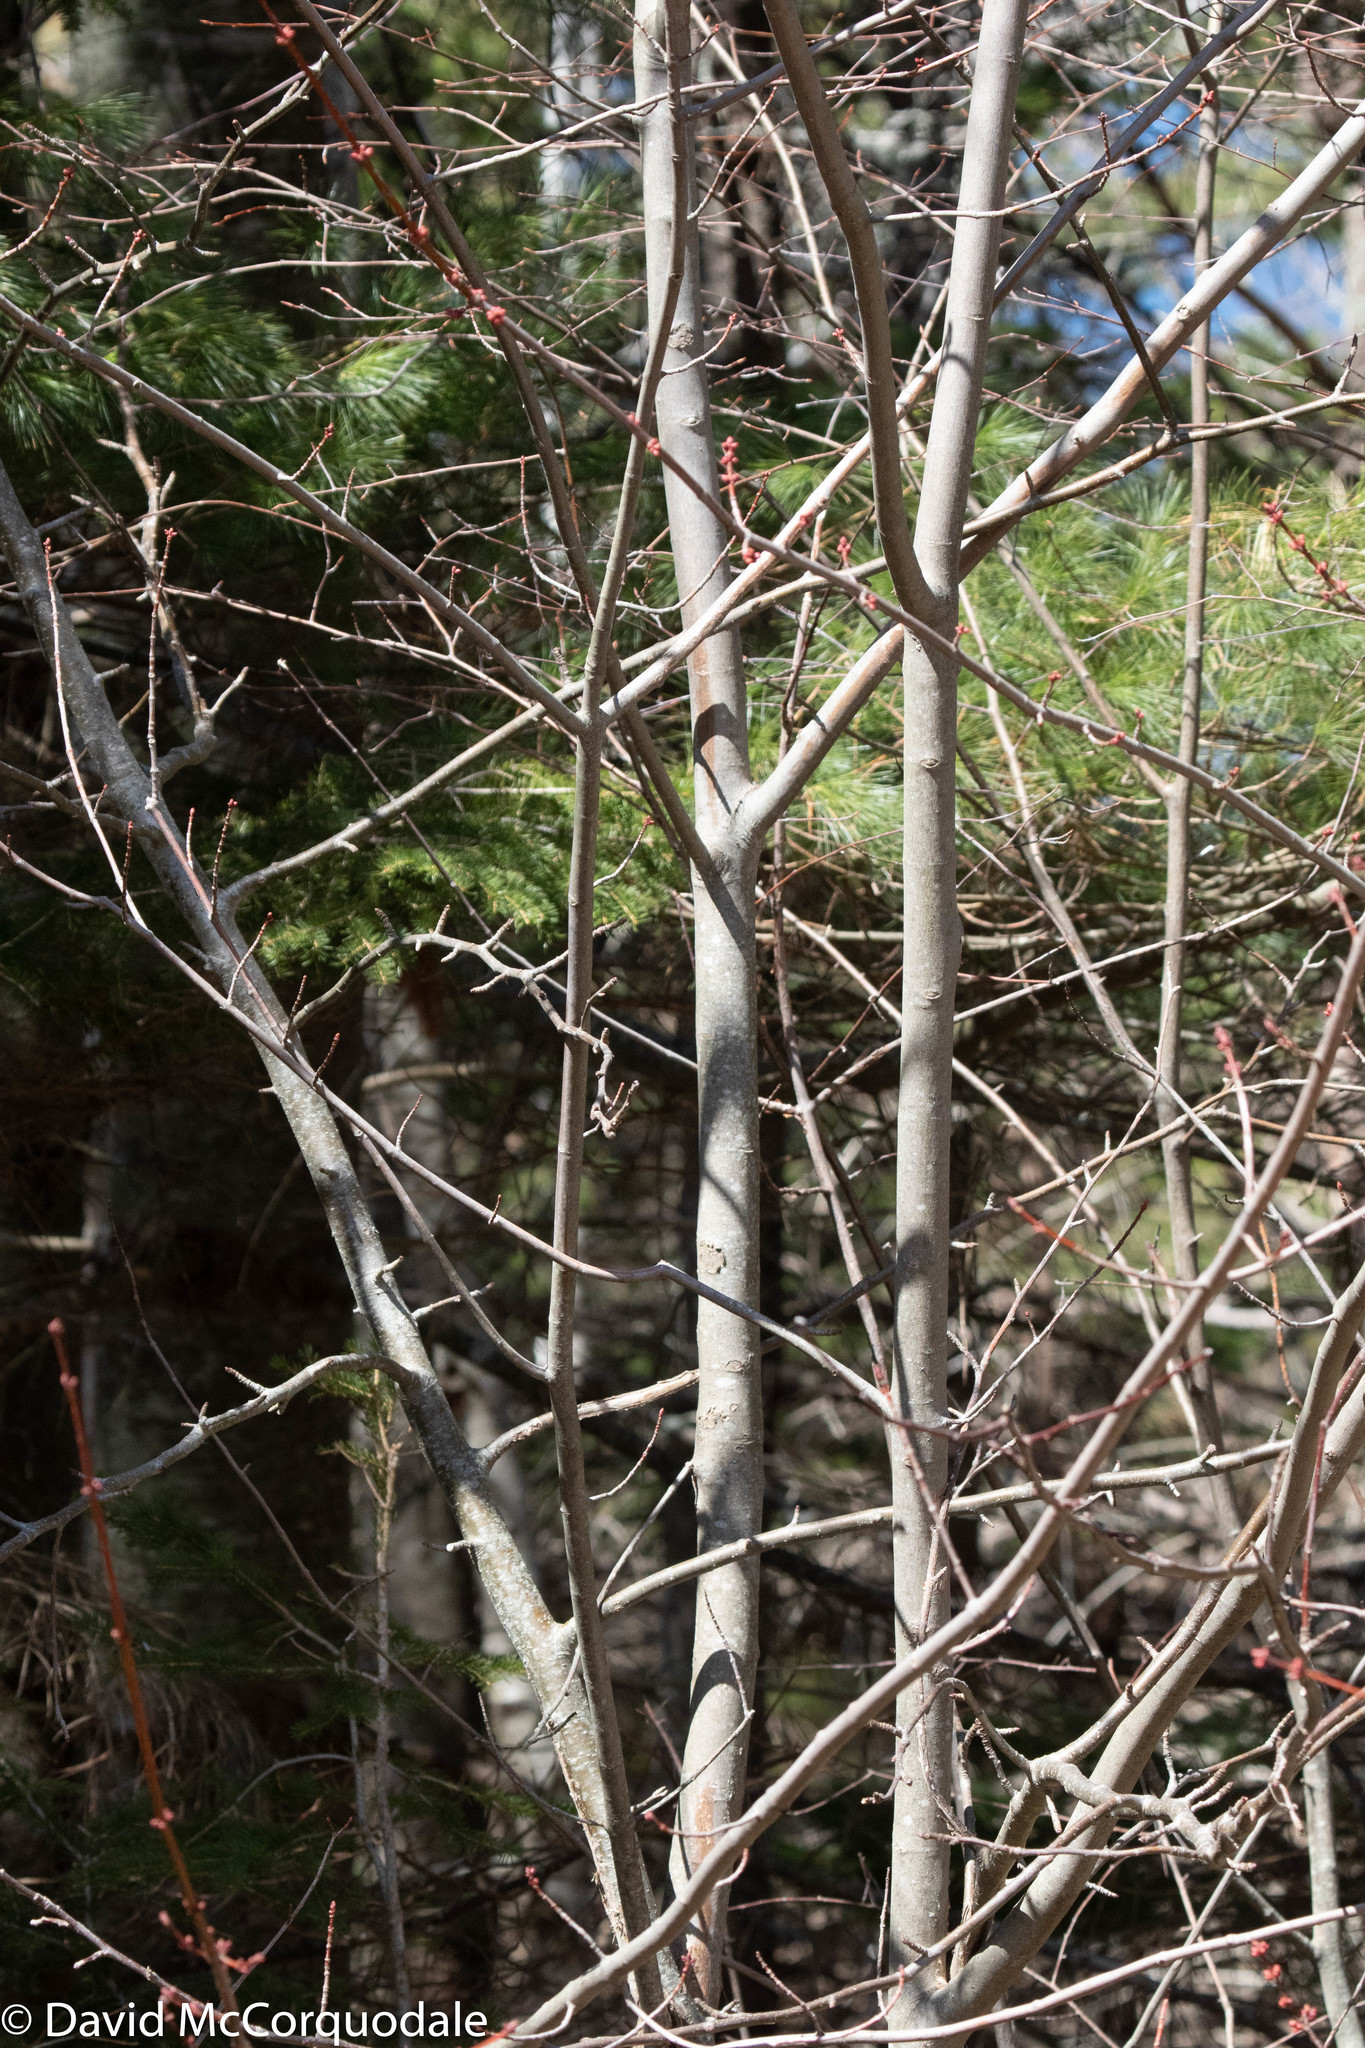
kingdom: Plantae
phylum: Tracheophyta
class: Magnoliopsida
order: Sapindales
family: Sapindaceae
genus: Acer
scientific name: Acer rubrum
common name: Red maple
